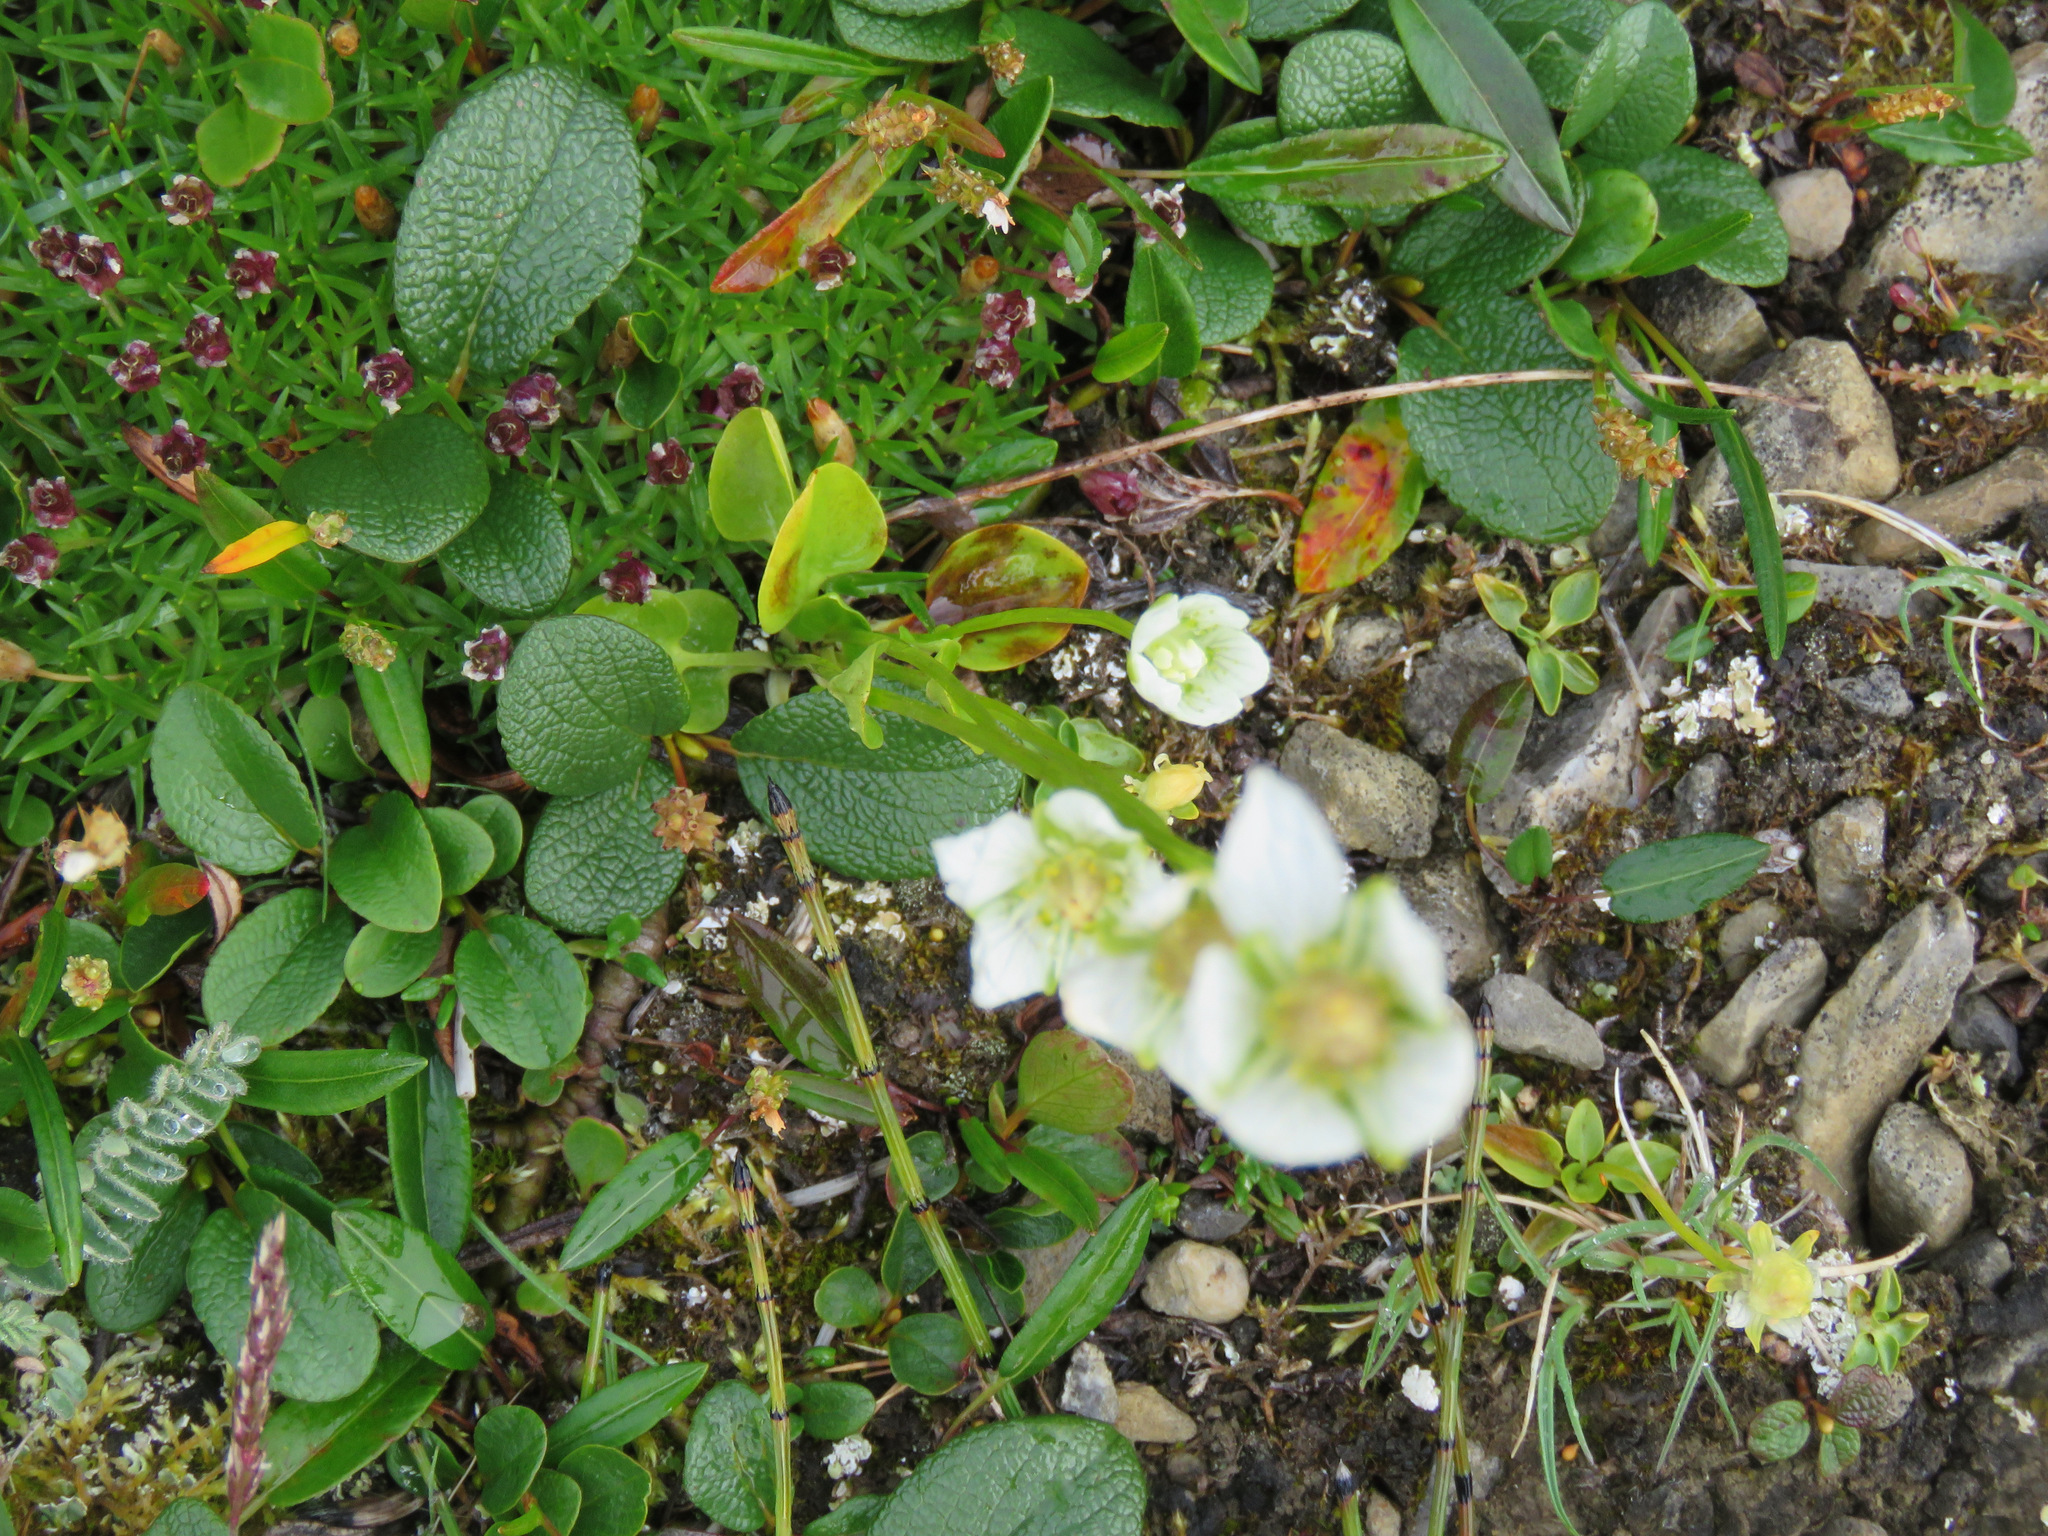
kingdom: Plantae
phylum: Tracheophyta
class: Magnoliopsida
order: Celastrales
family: Parnassiaceae
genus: Parnassia
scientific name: Parnassia palustris
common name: Grass-of-parnassus
